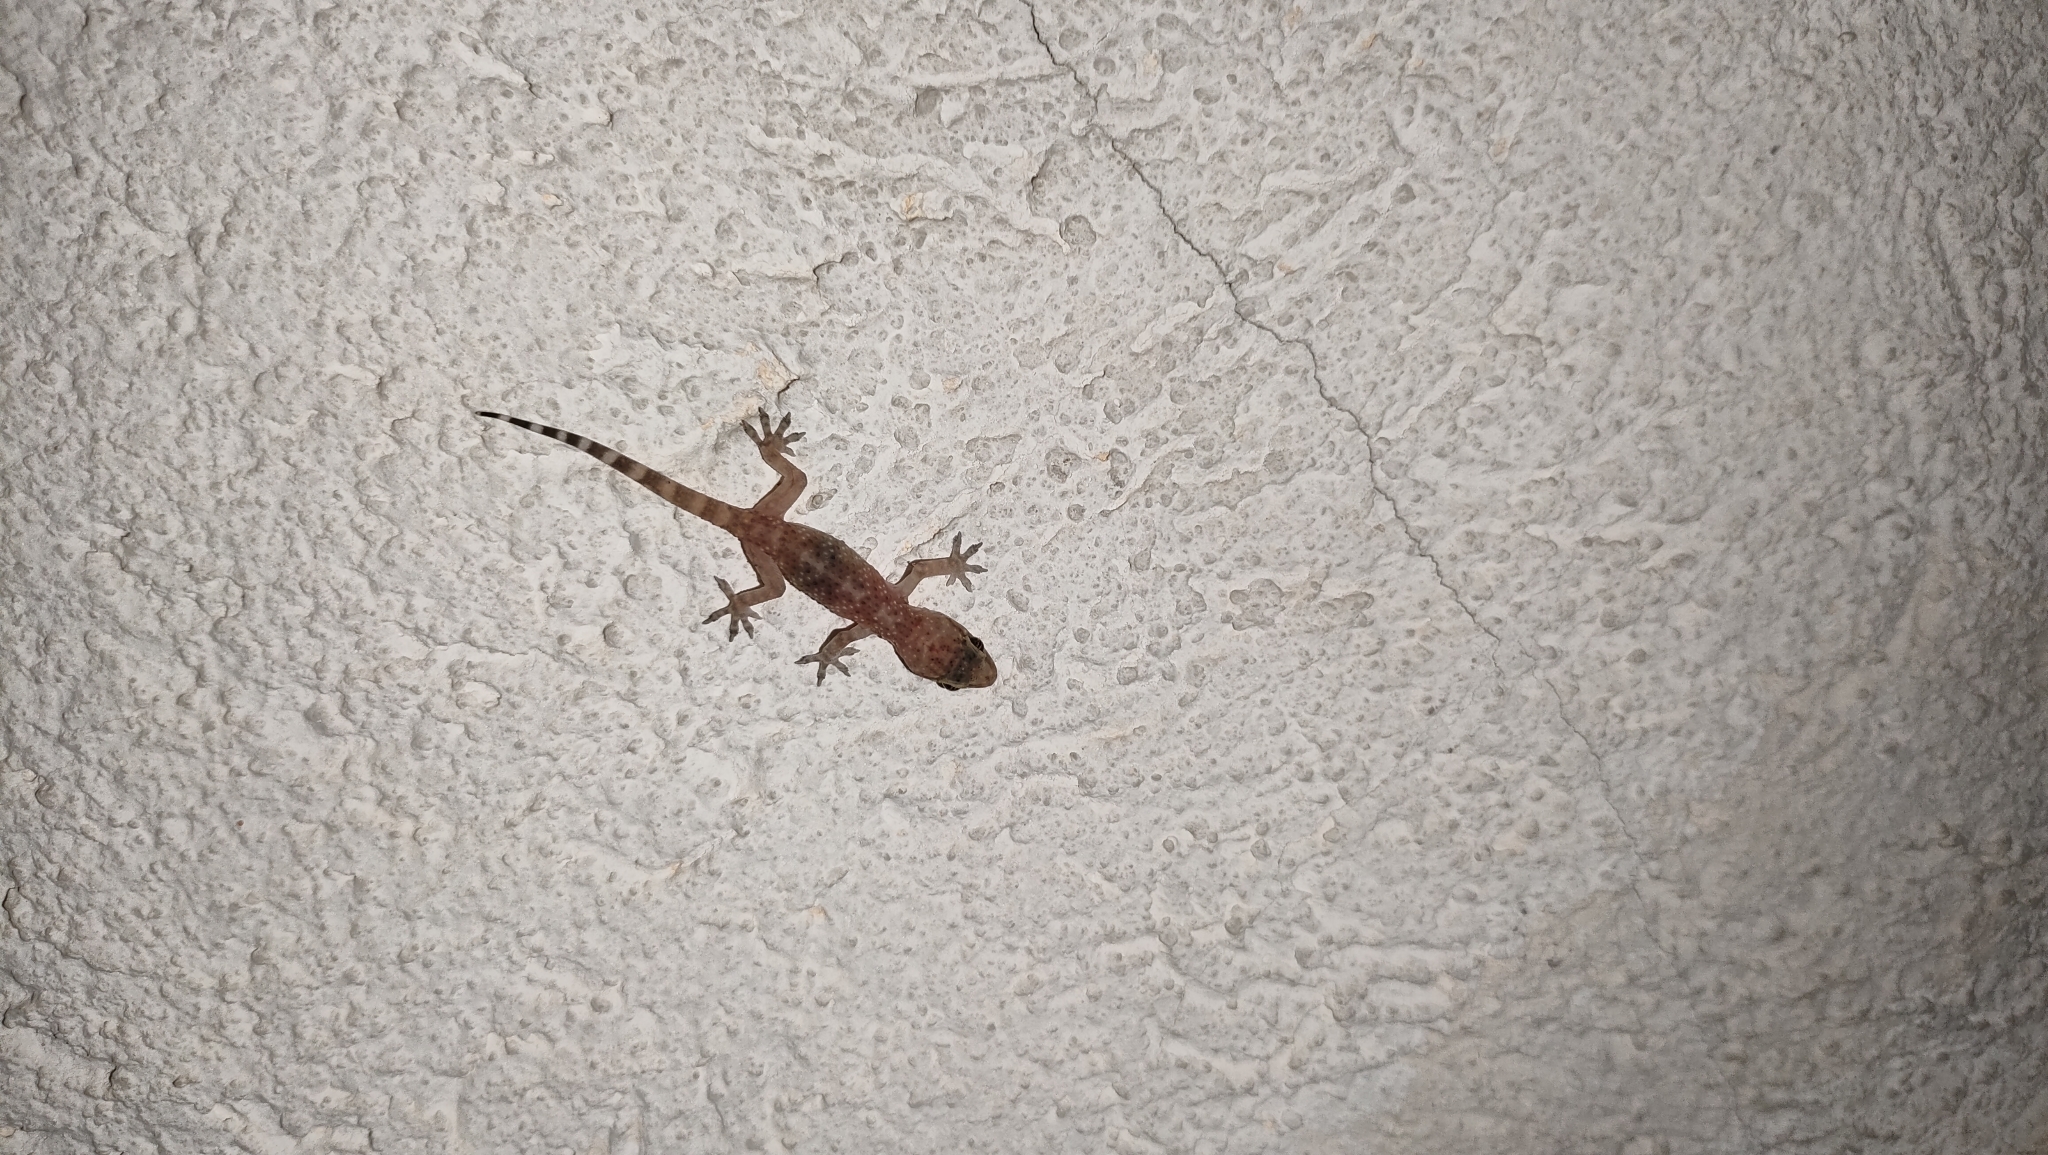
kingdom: Animalia
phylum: Chordata
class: Squamata
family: Gekkonidae
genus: Hemidactylus
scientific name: Hemidactylus turcicus
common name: Turkish gecko
